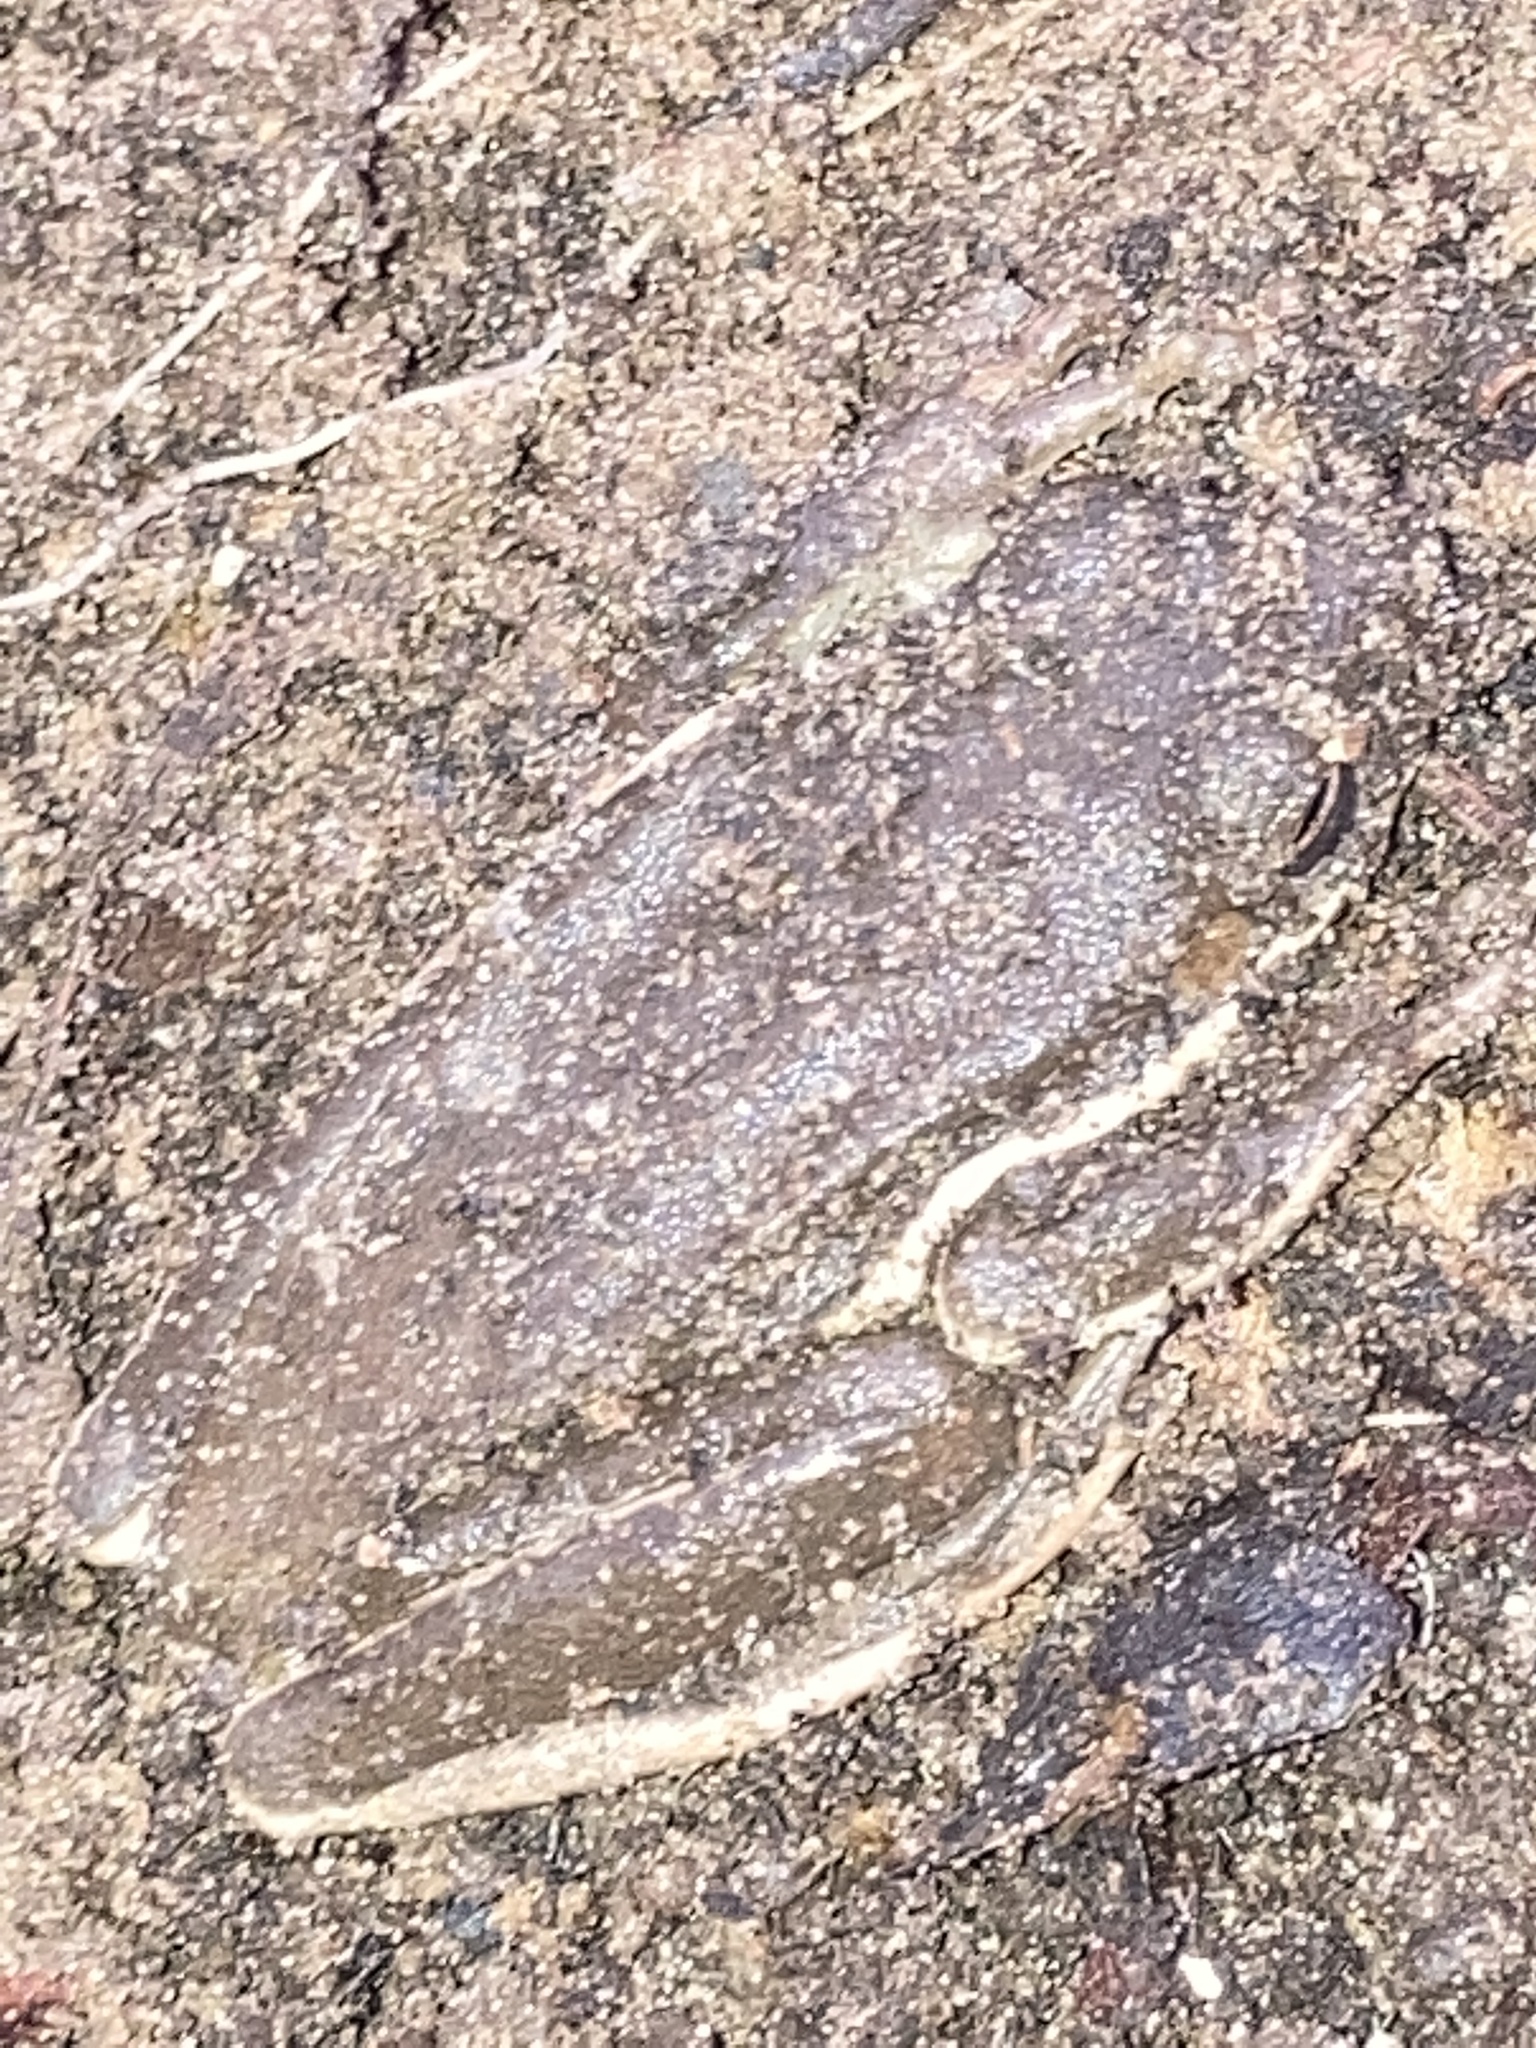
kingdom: Animalia
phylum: Chordata
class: Amphibia
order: Anura
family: Hylidae
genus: Dryophytes
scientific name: Dryophytes cinereus
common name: Green treefrog
